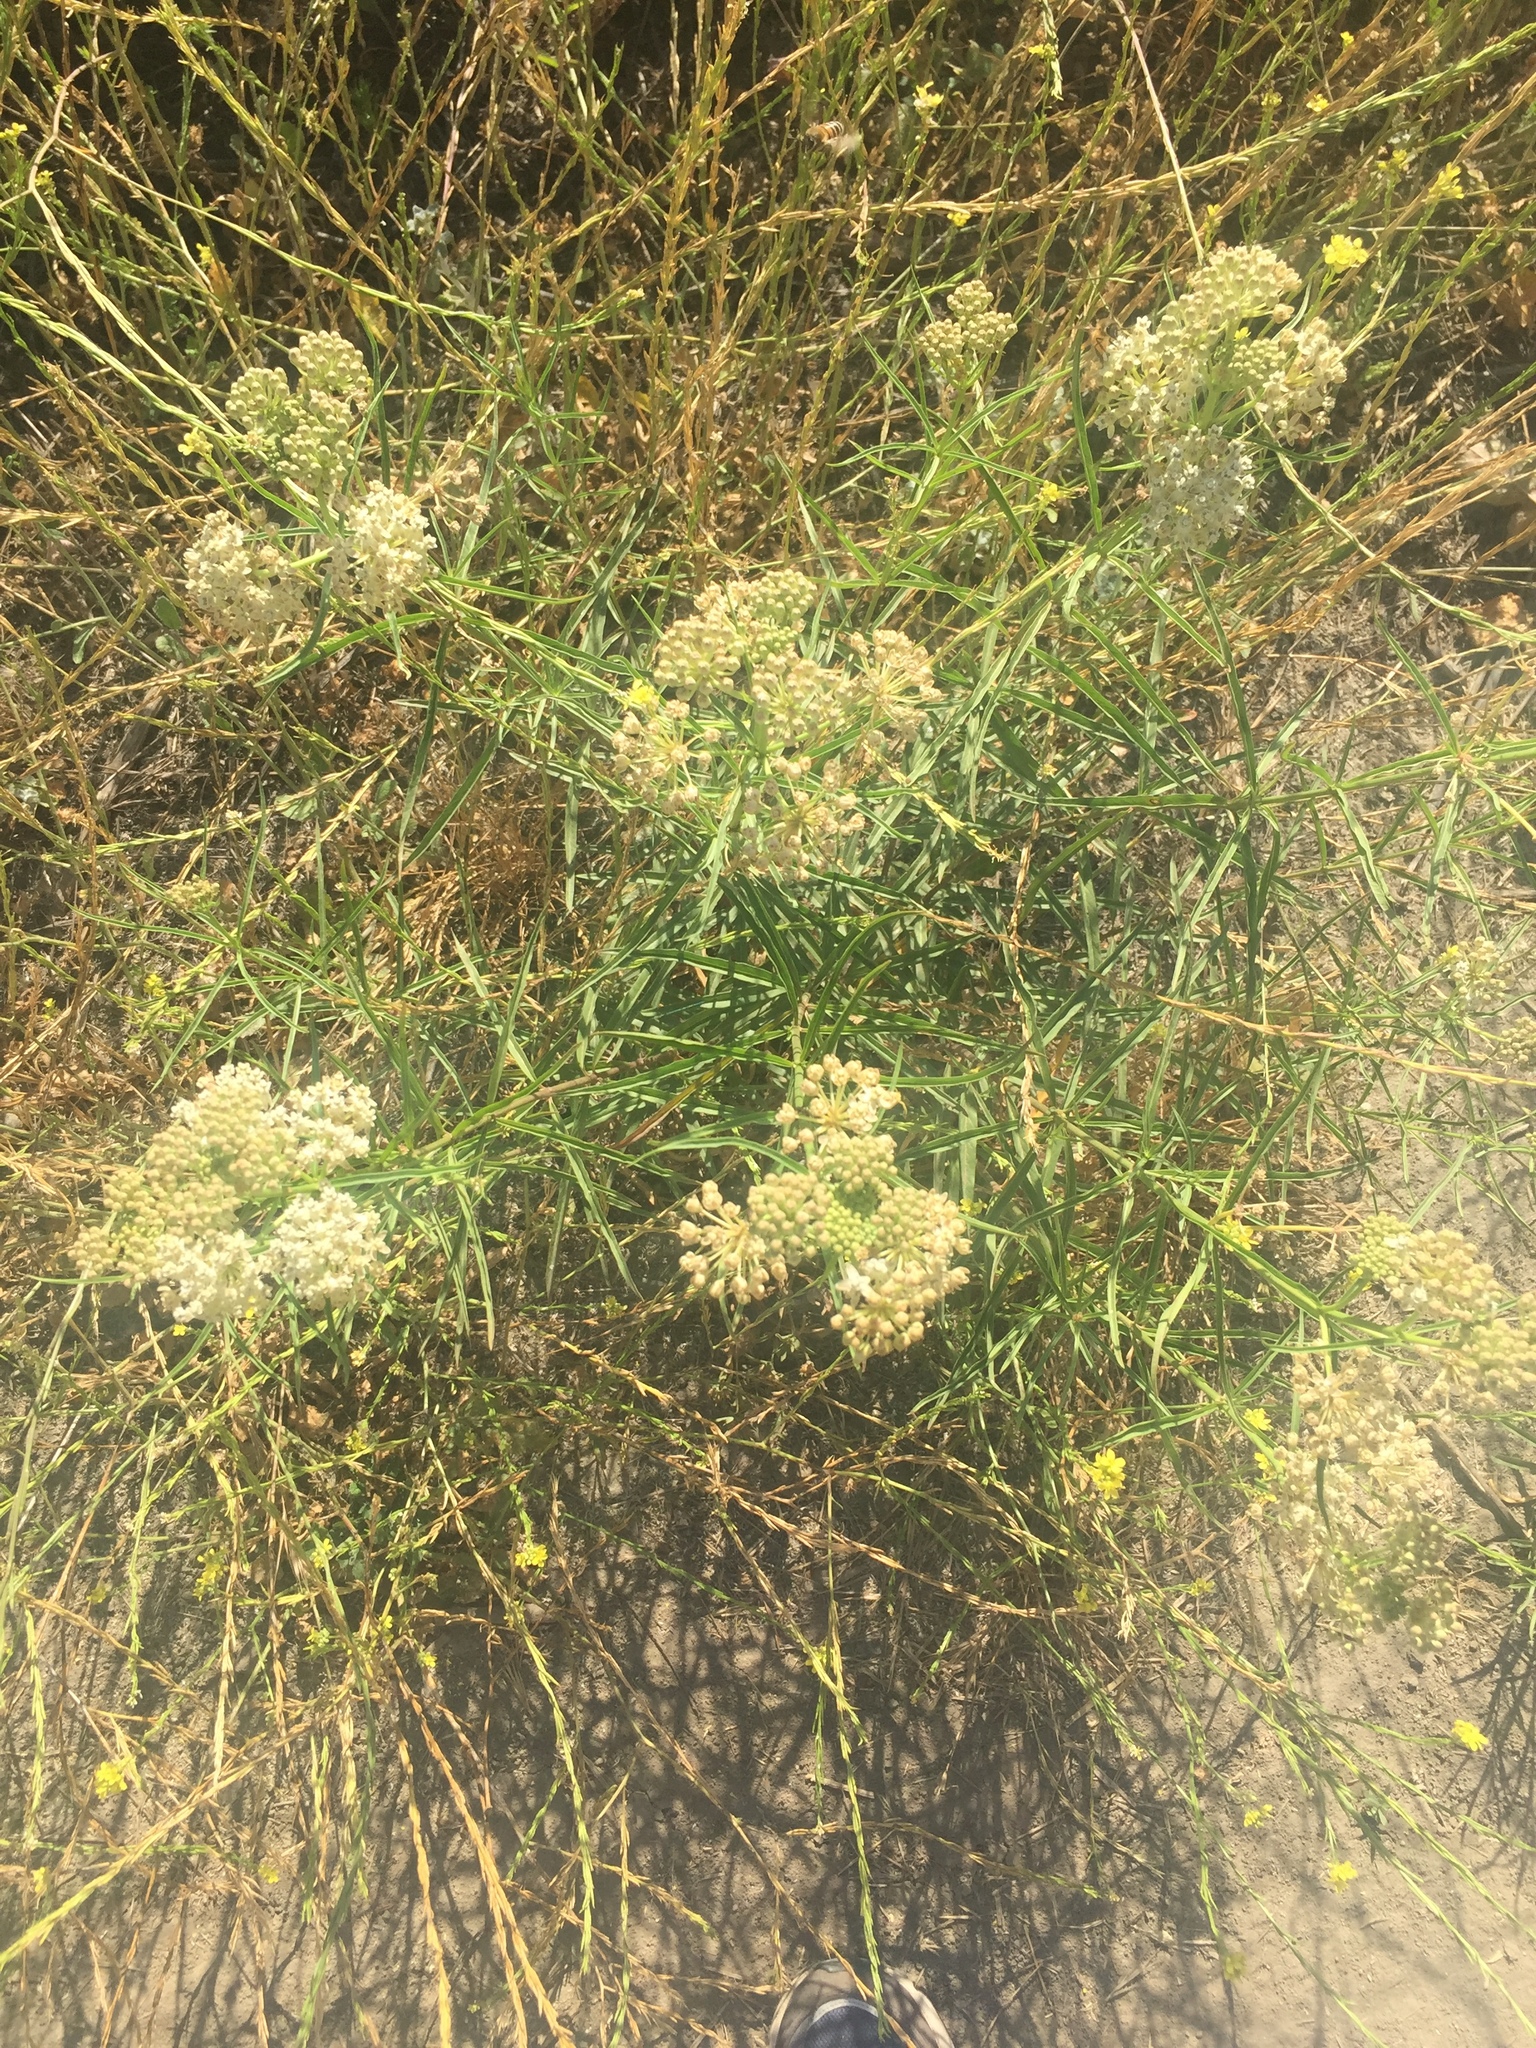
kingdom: Plantae
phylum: Tracheophyta
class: Magnoliopsida
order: Gentianales
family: Apocynaceae
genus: Asclepias
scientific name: Asclepias fascicularis
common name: Mexican milkweed
